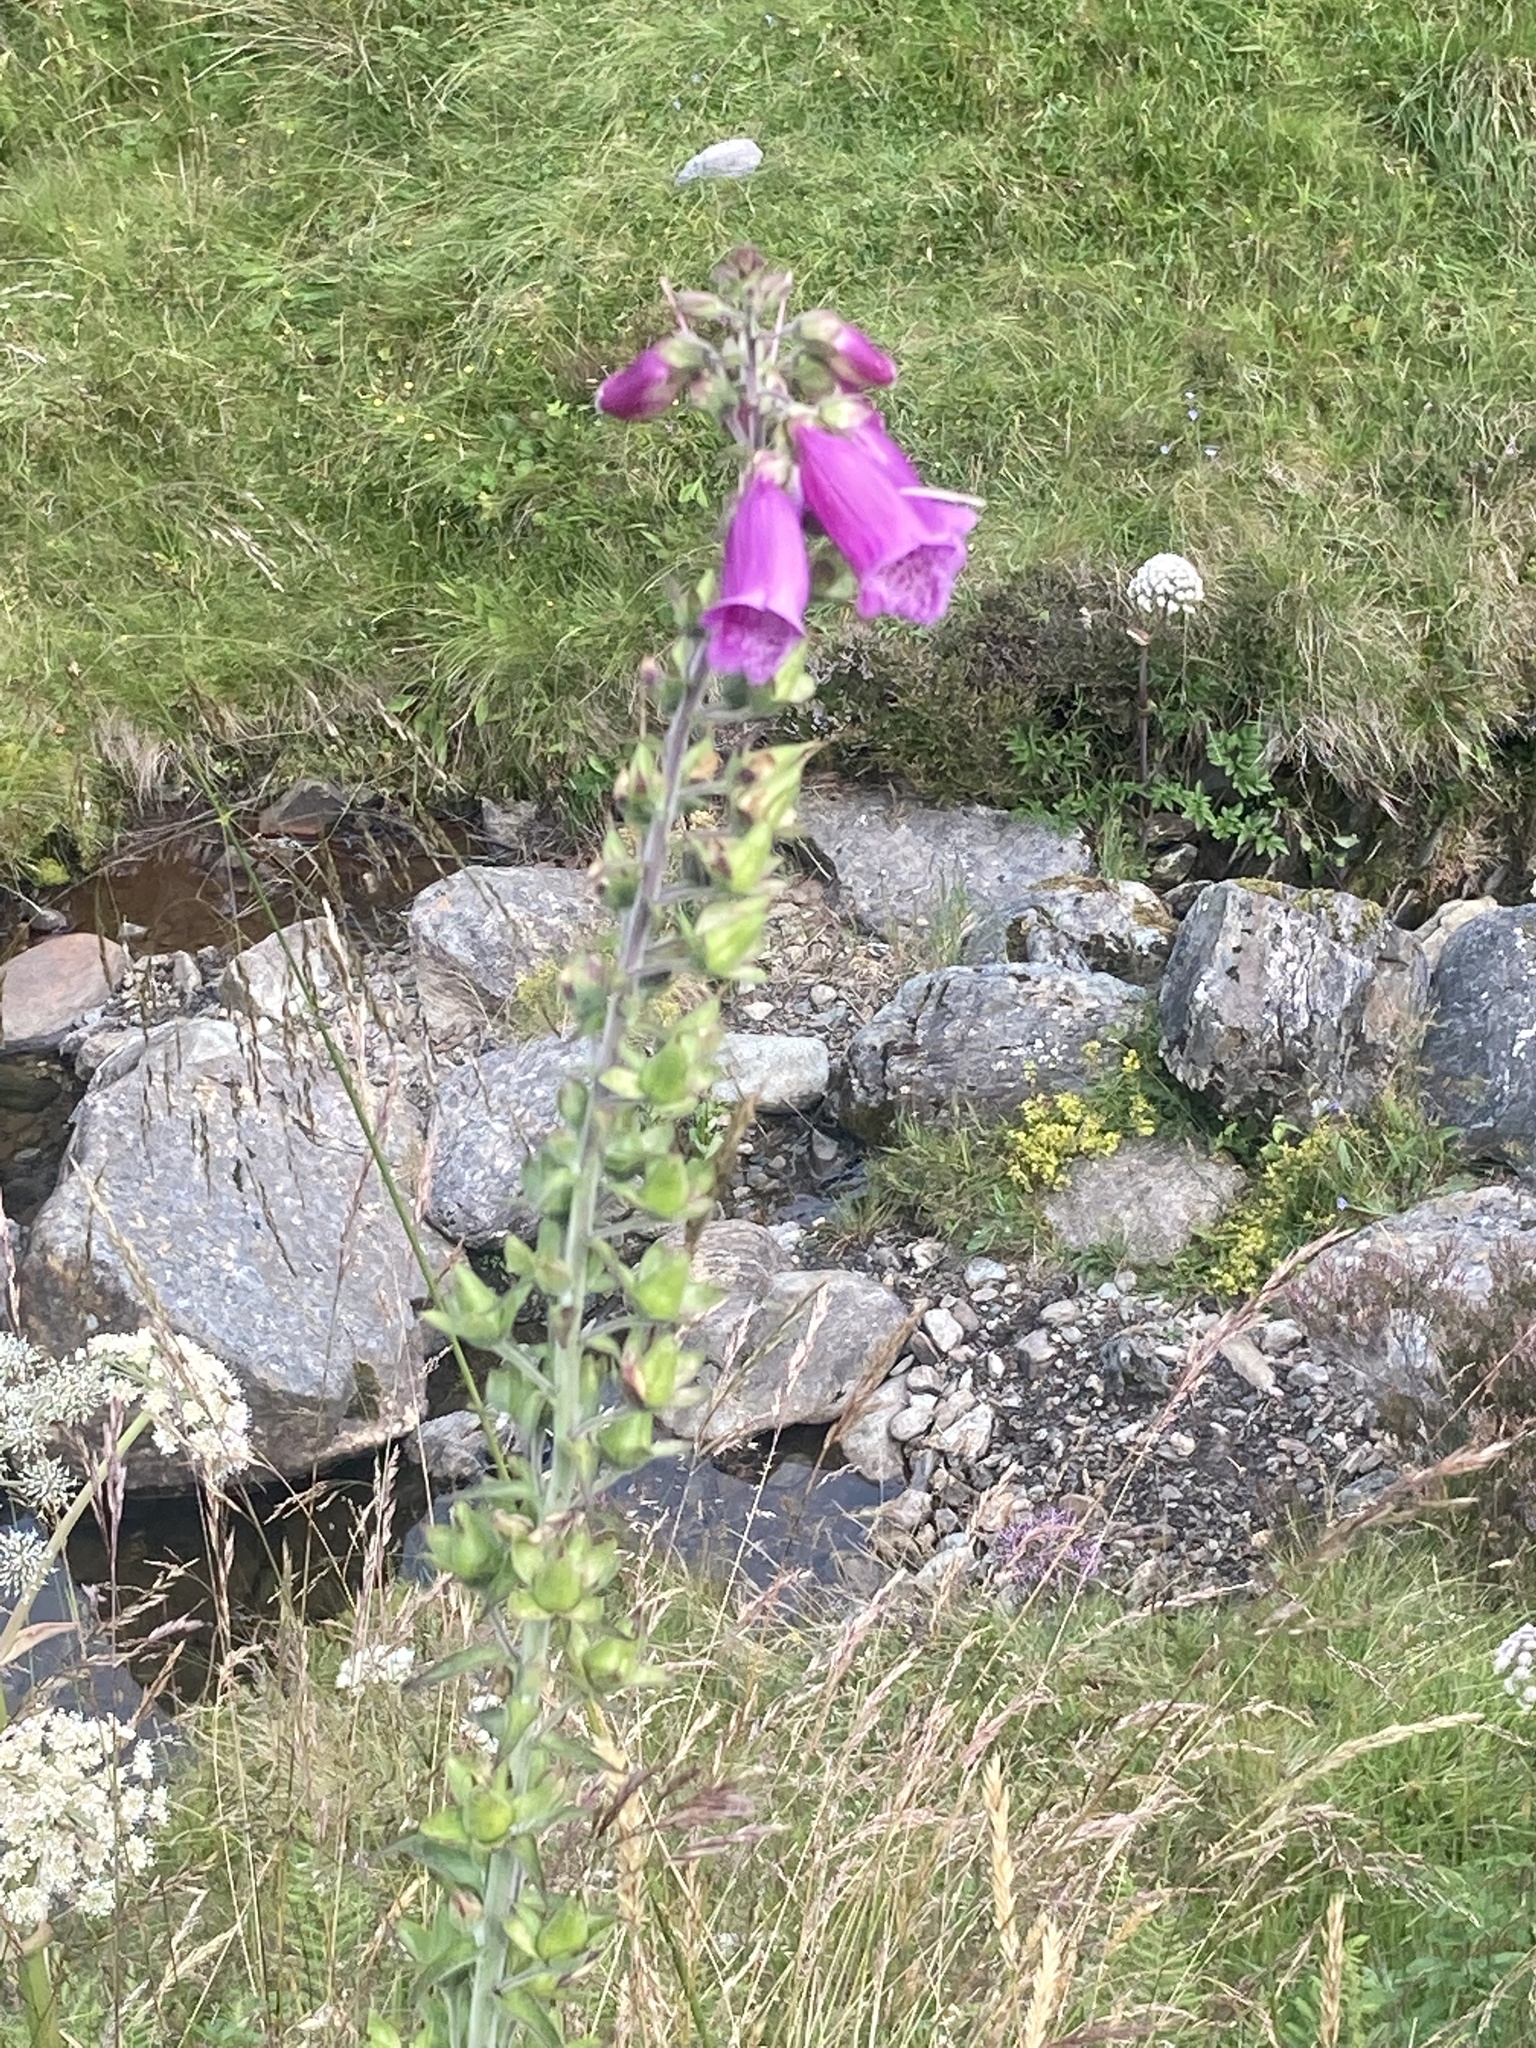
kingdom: Plantae
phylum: Tracheophyta
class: Magnoliopsida
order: Lamiales
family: Plantaginaceae
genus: Digitalis
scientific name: Digitalis purpurea
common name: Foxglove
